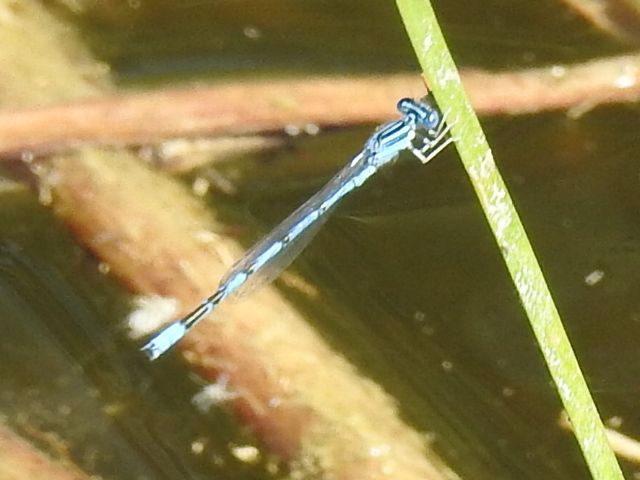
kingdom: Animalia
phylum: Arthropoda
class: Insecta
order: Odonata
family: Coenagrionidae
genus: Enallagma
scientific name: Enallagma basidens
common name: Double-striped bluet
